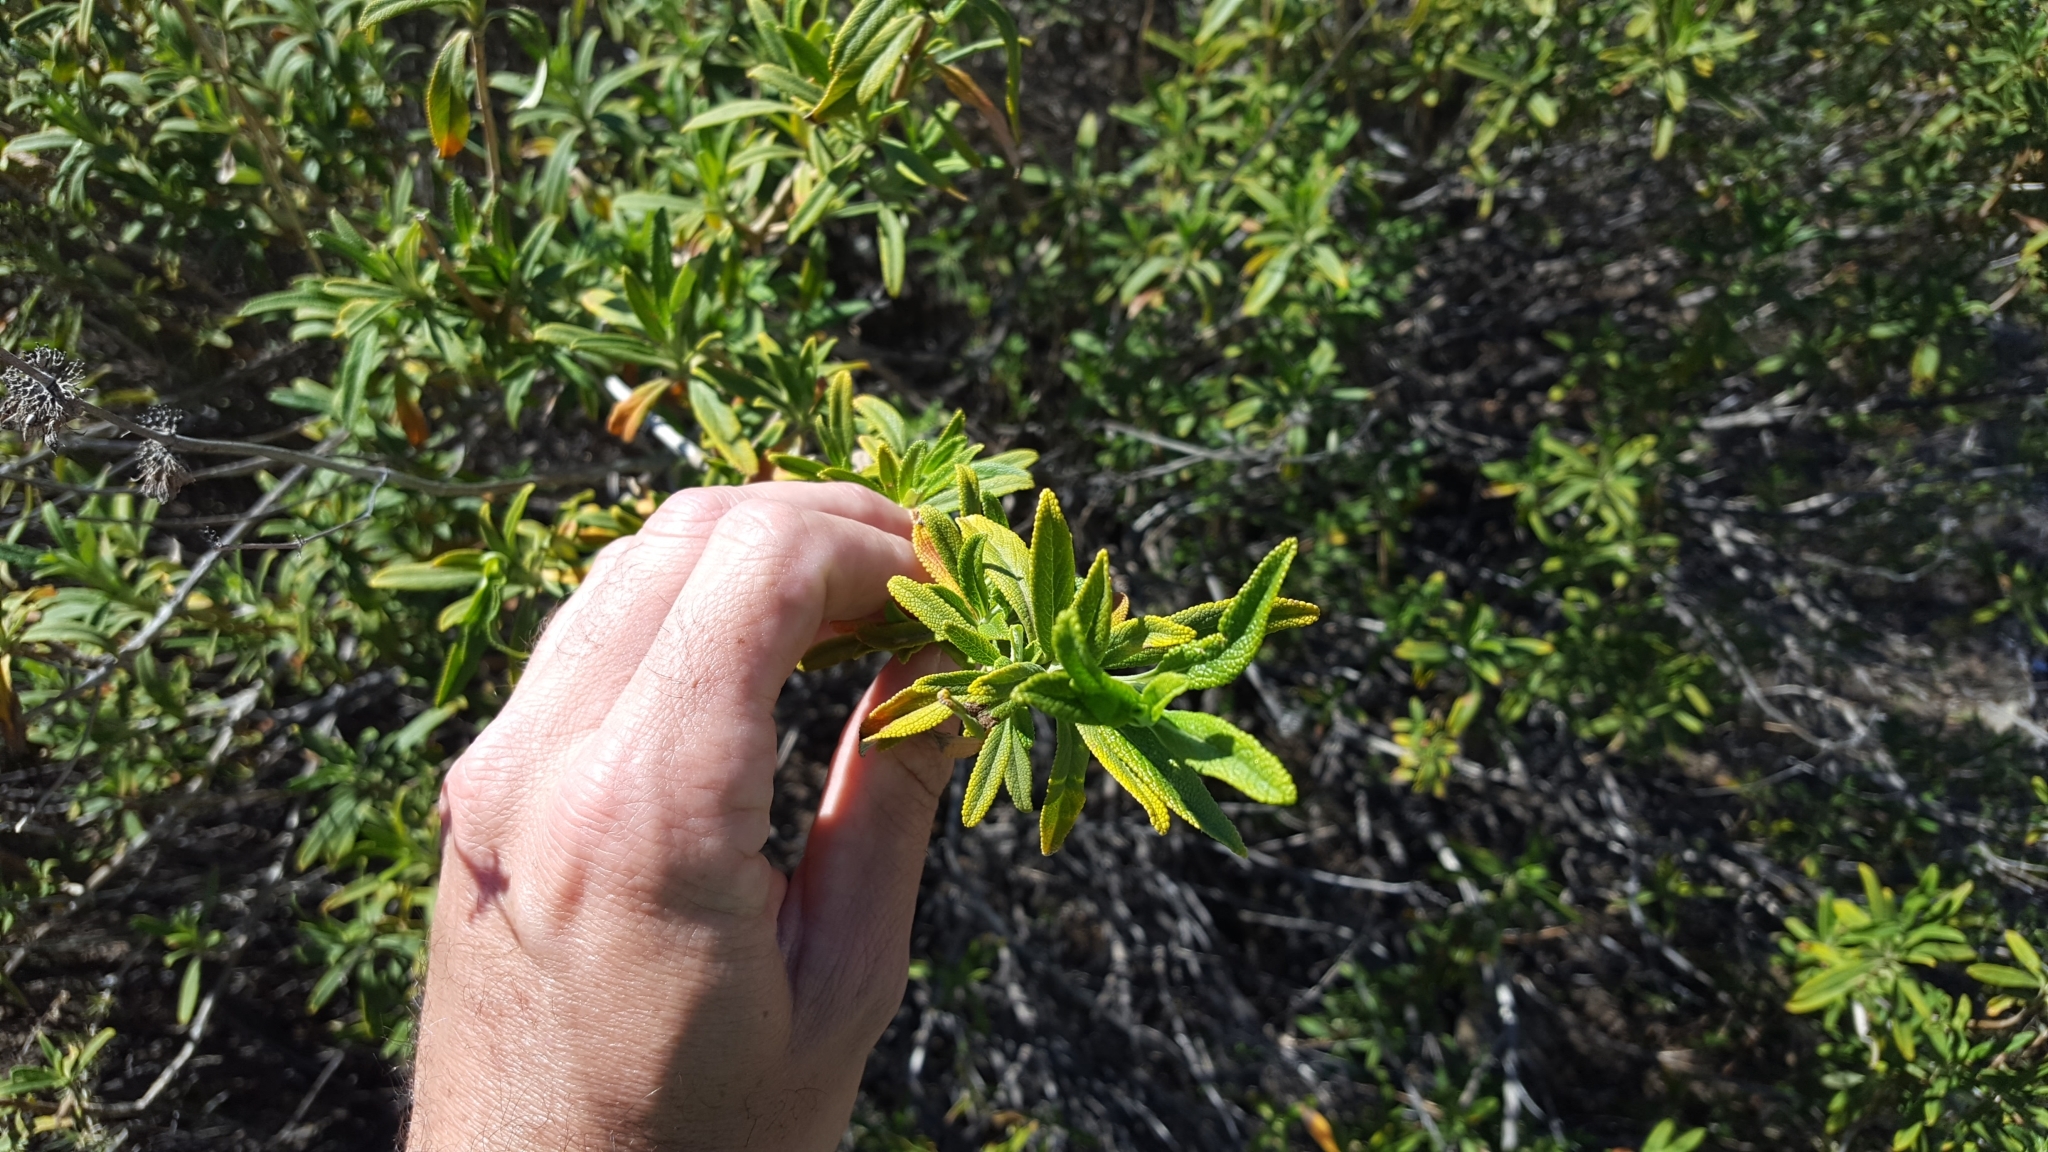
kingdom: Plantae
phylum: Tracheophyta
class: Magnoliopsida
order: Lamiales
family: Lamiaceae
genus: Salvia
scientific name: Salvia mellifera
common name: Black sage
